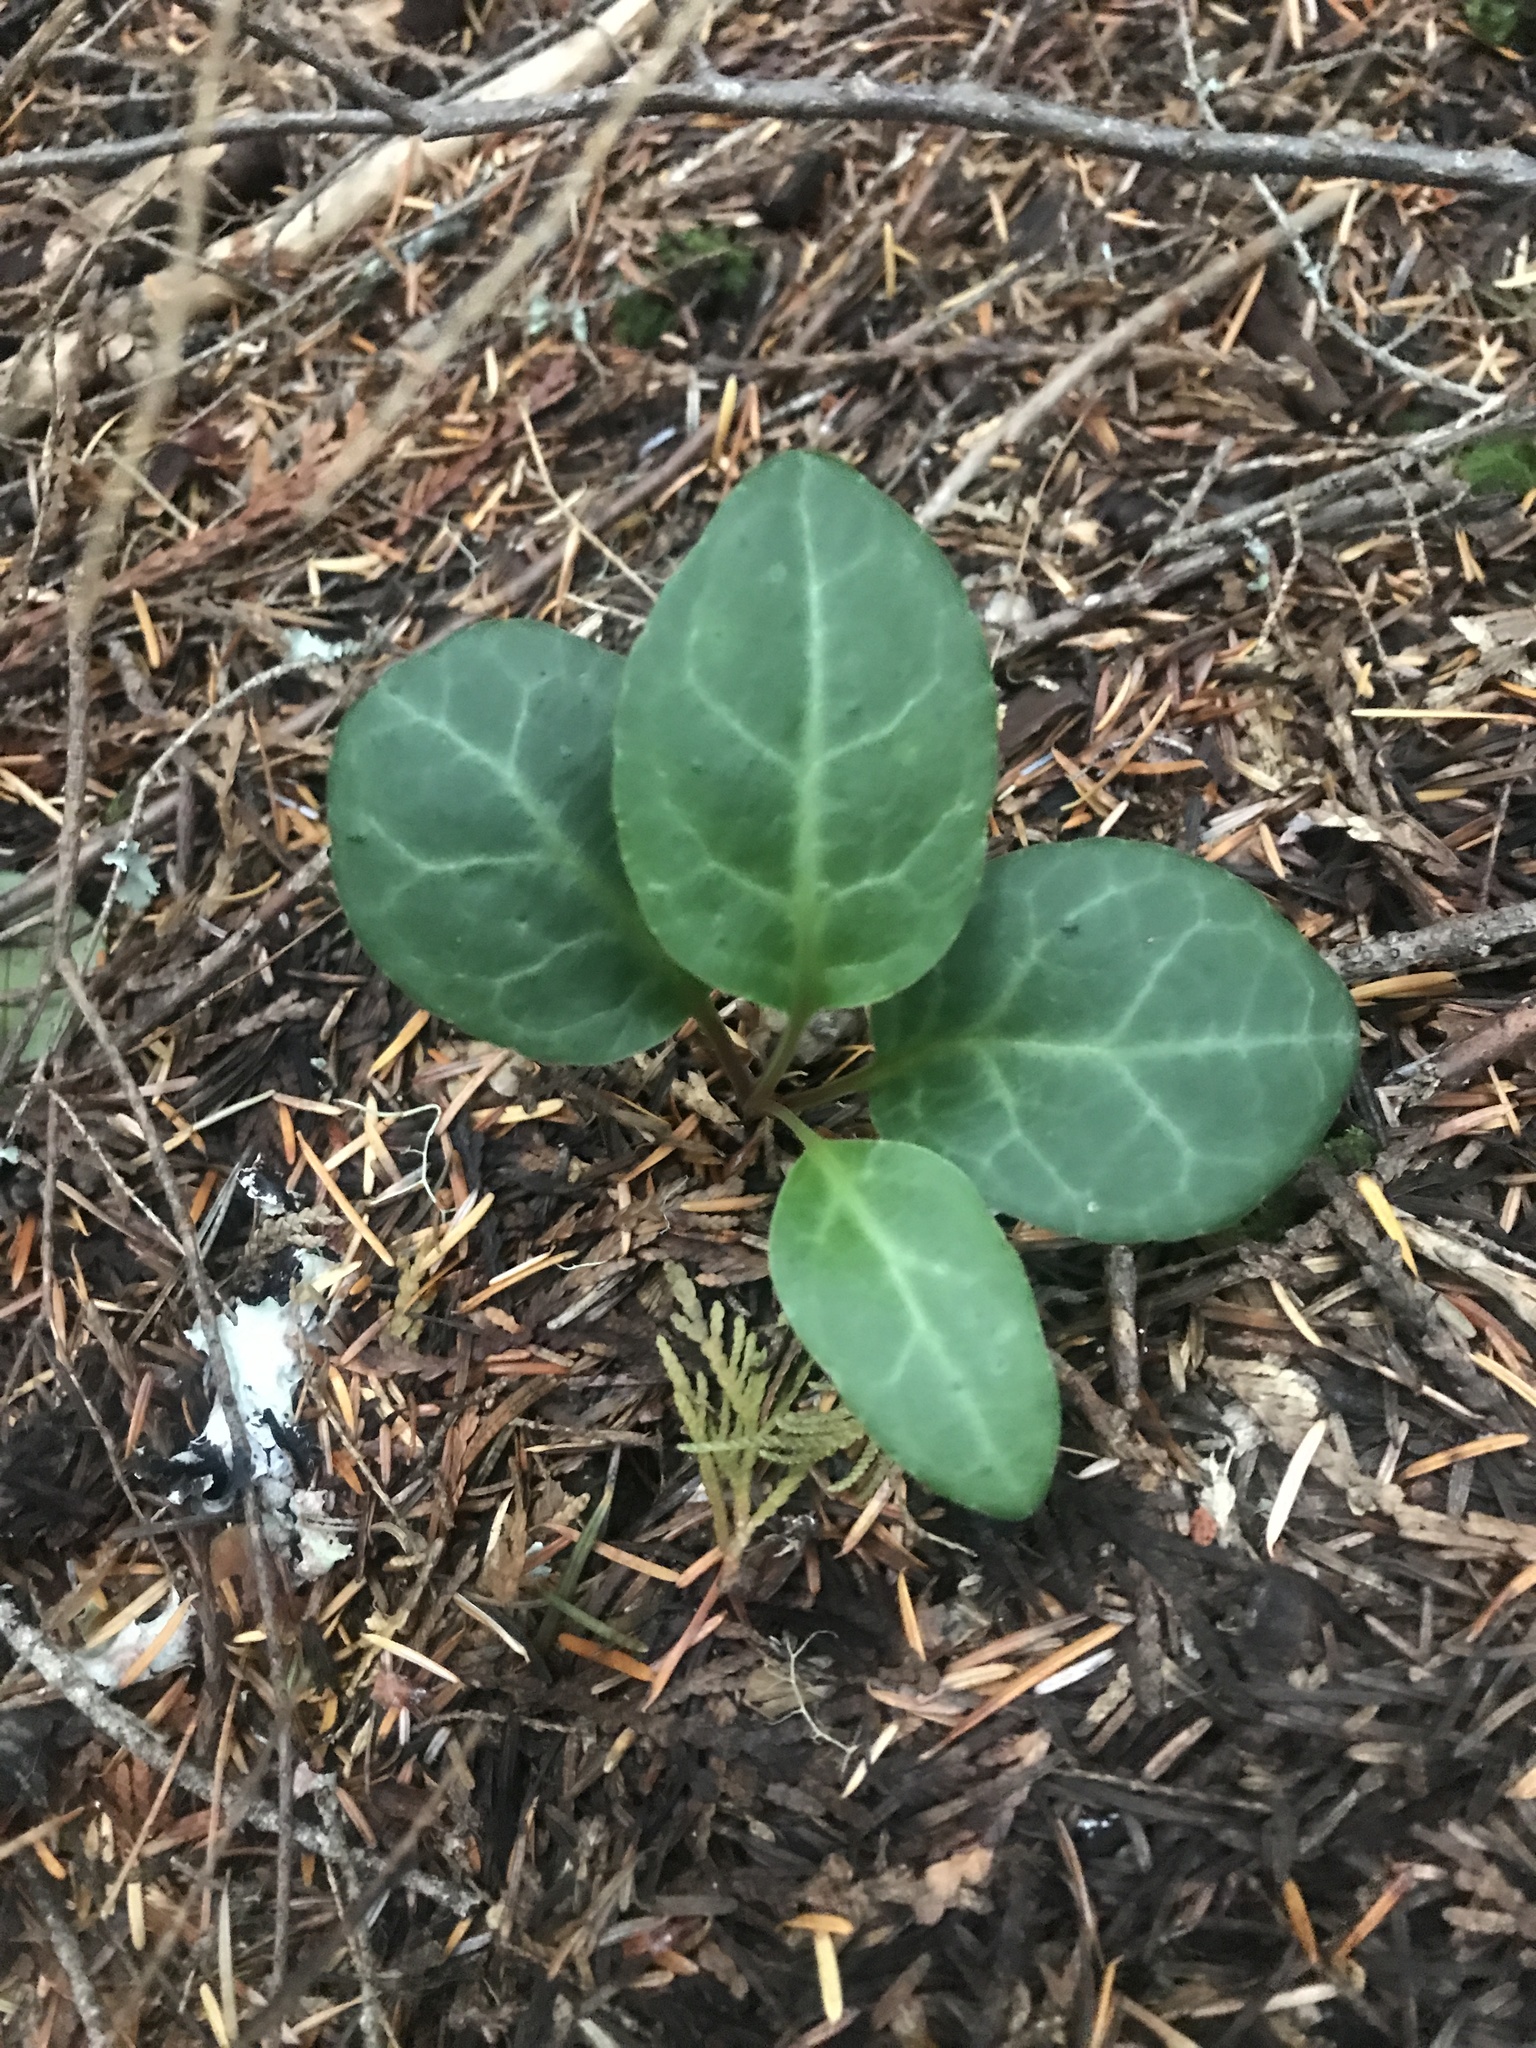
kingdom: Plantae
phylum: Tracheophyta
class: Magnoliopsida
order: Ericales
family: Ericaceae
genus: Pyrola
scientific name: Pyrola picta
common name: White-vein wintergreen
